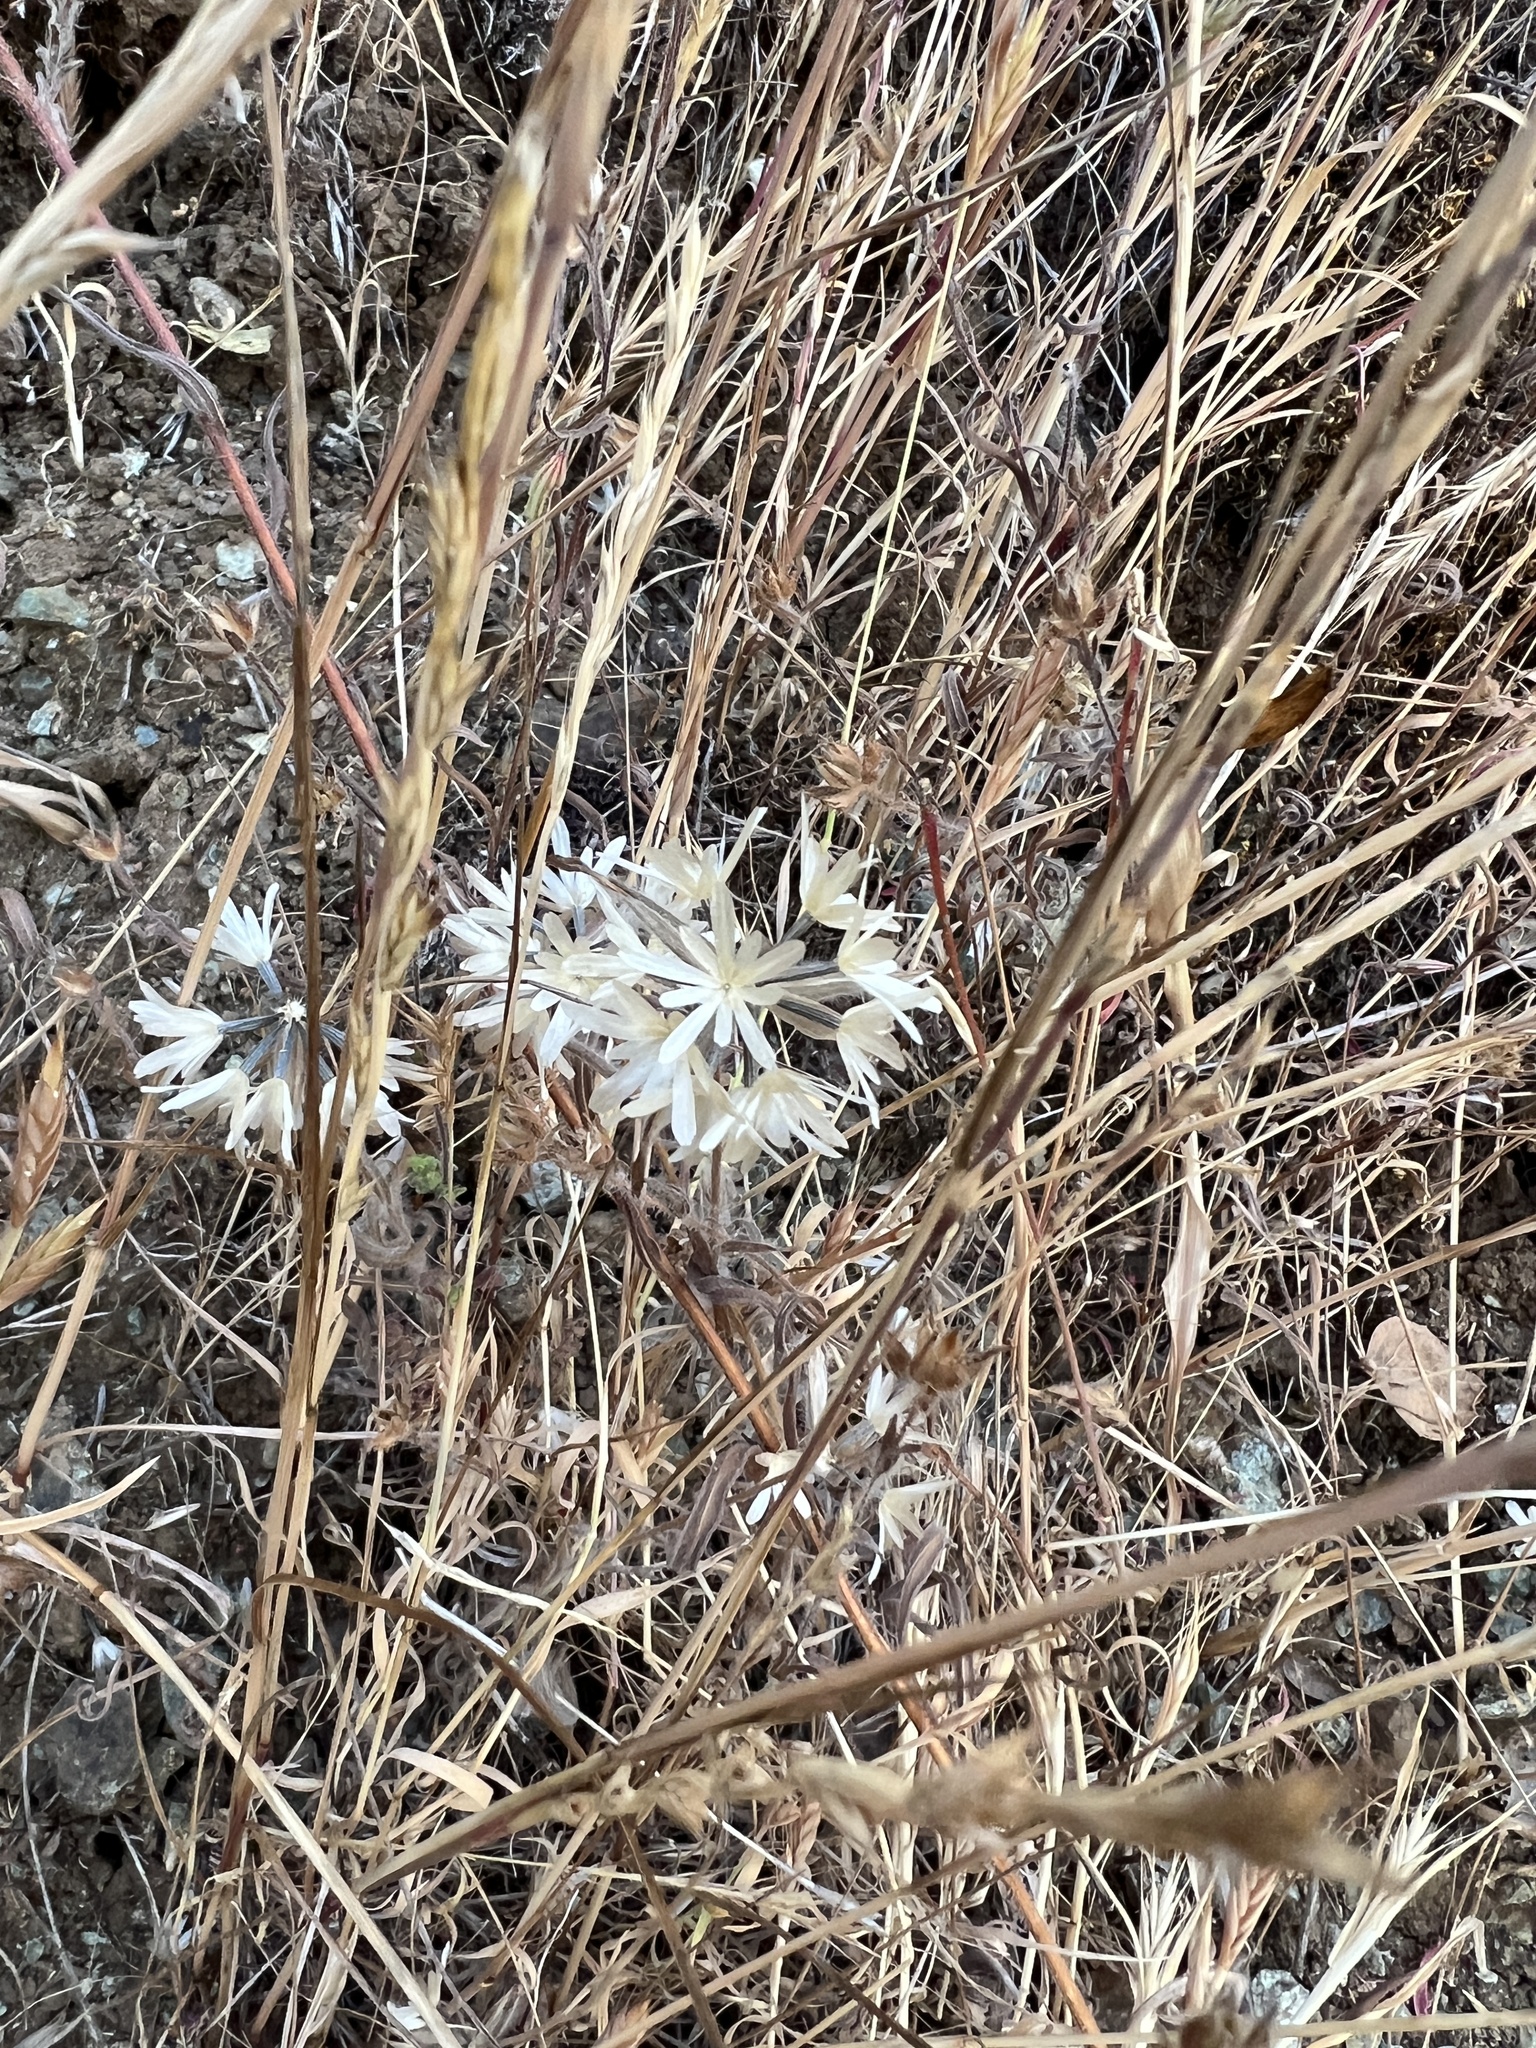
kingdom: Plantae
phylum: Tracheophyta
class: Magnoliopsida
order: Asterales
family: Asteraceae
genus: Achyrachaena
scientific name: Achyrachaena mollis
